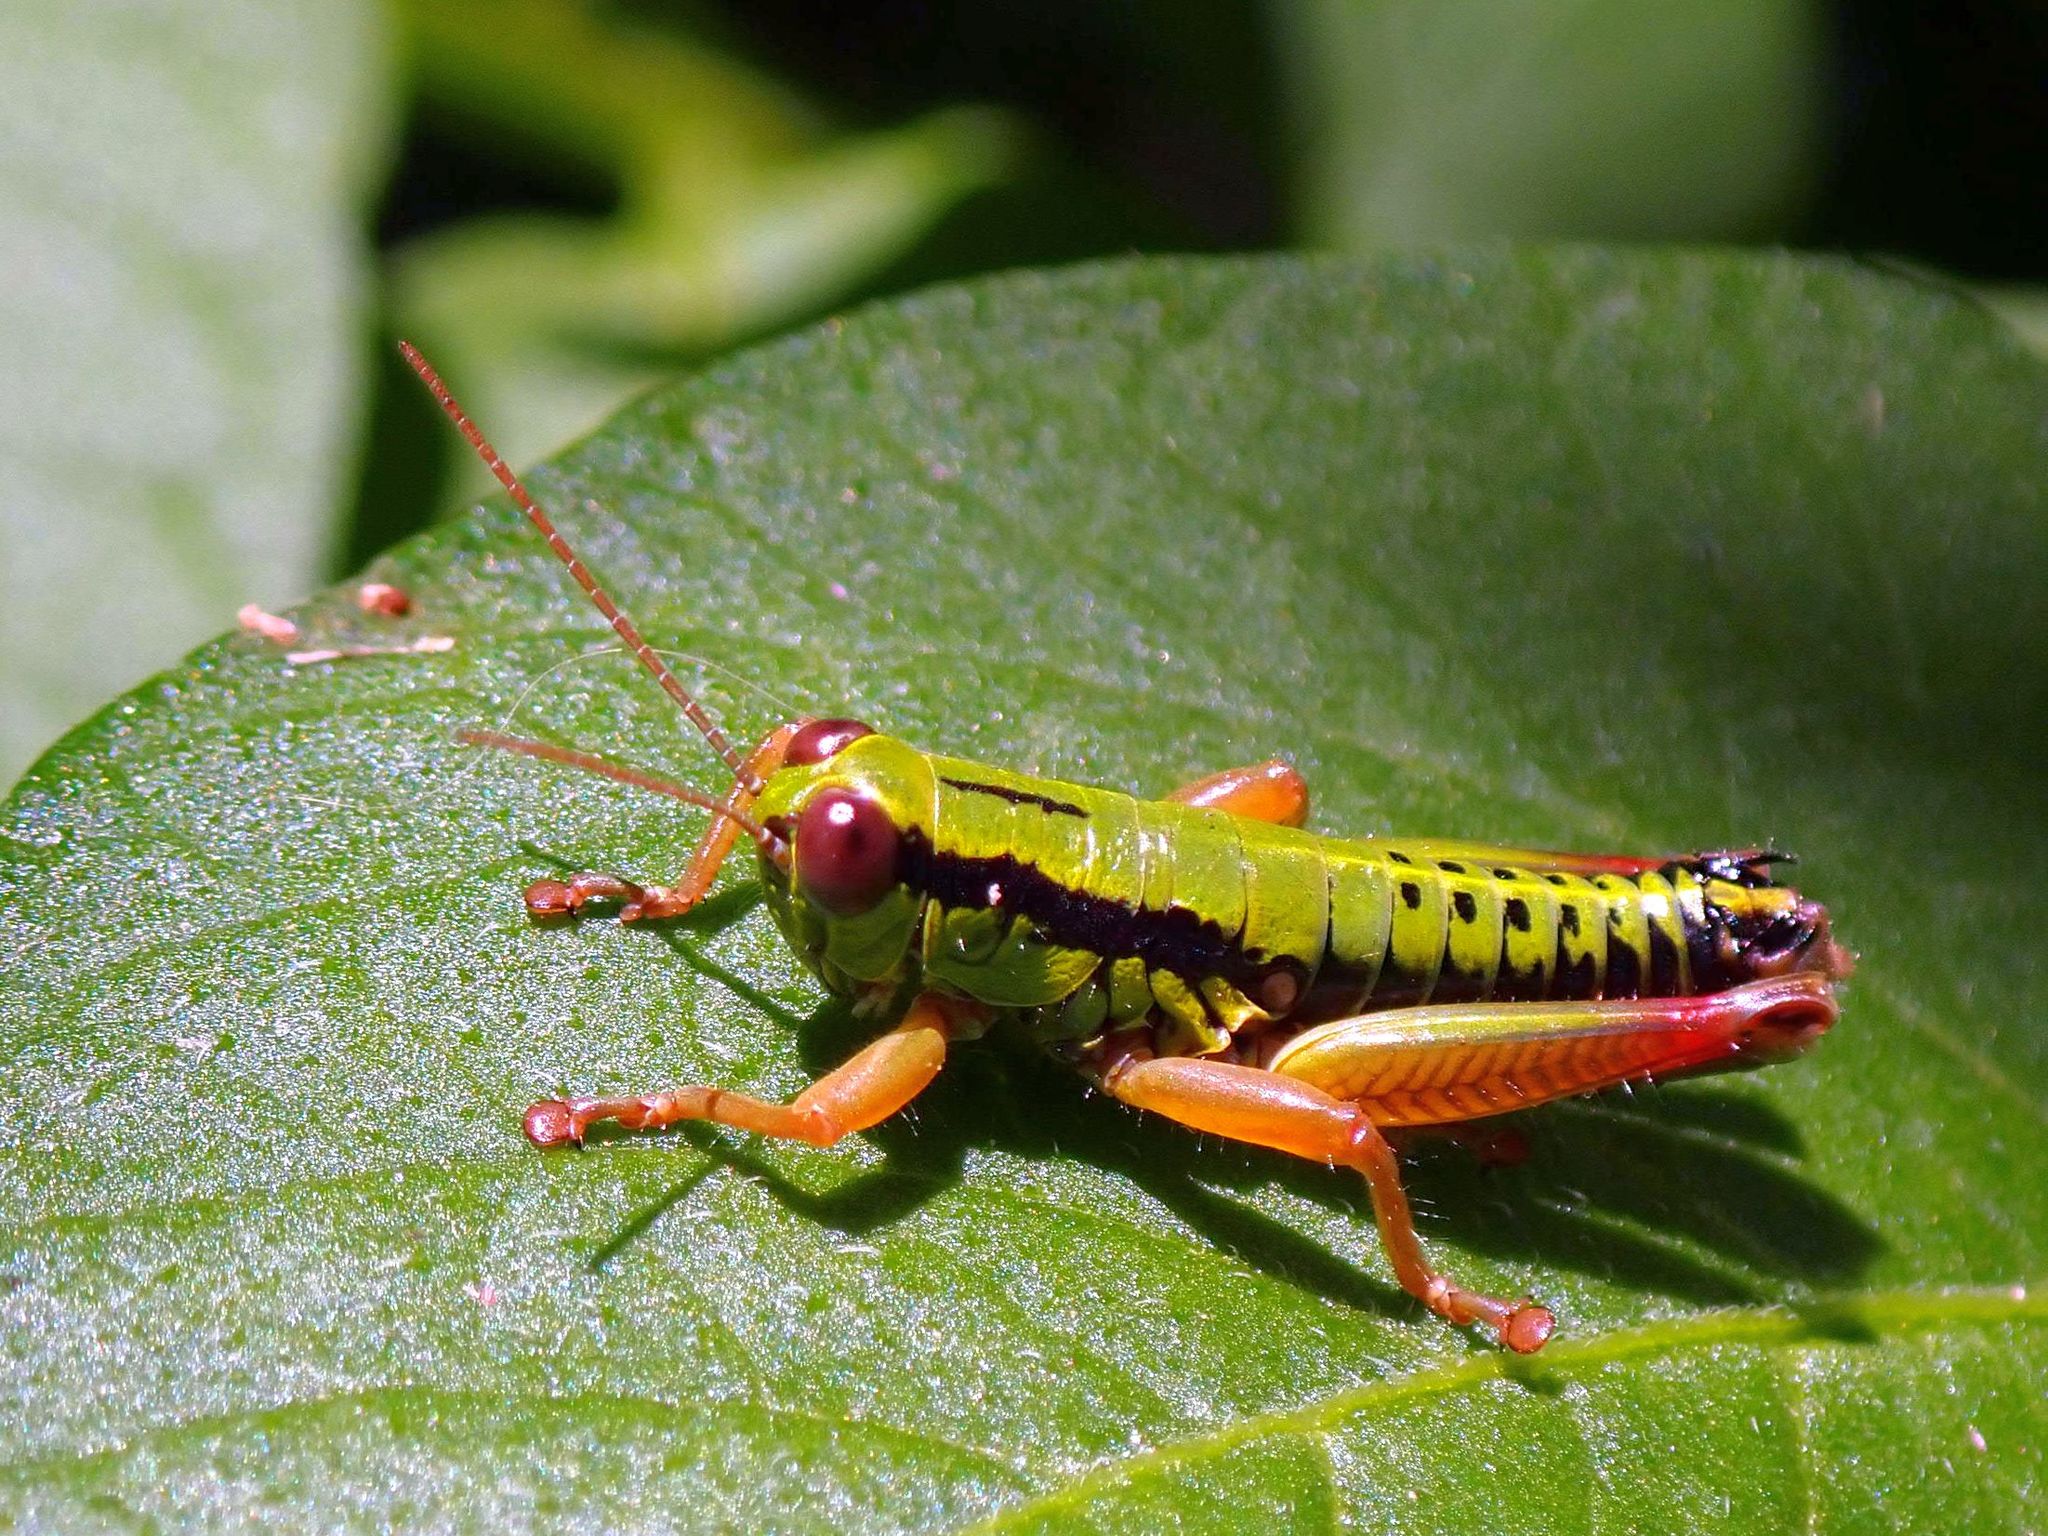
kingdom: Animalia
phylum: Arthropoda
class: Insecta
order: Orthoptera
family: Acrididae
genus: Micropodisma
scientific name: Micropodisma salamandra
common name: Foothill mountain grasshopper
